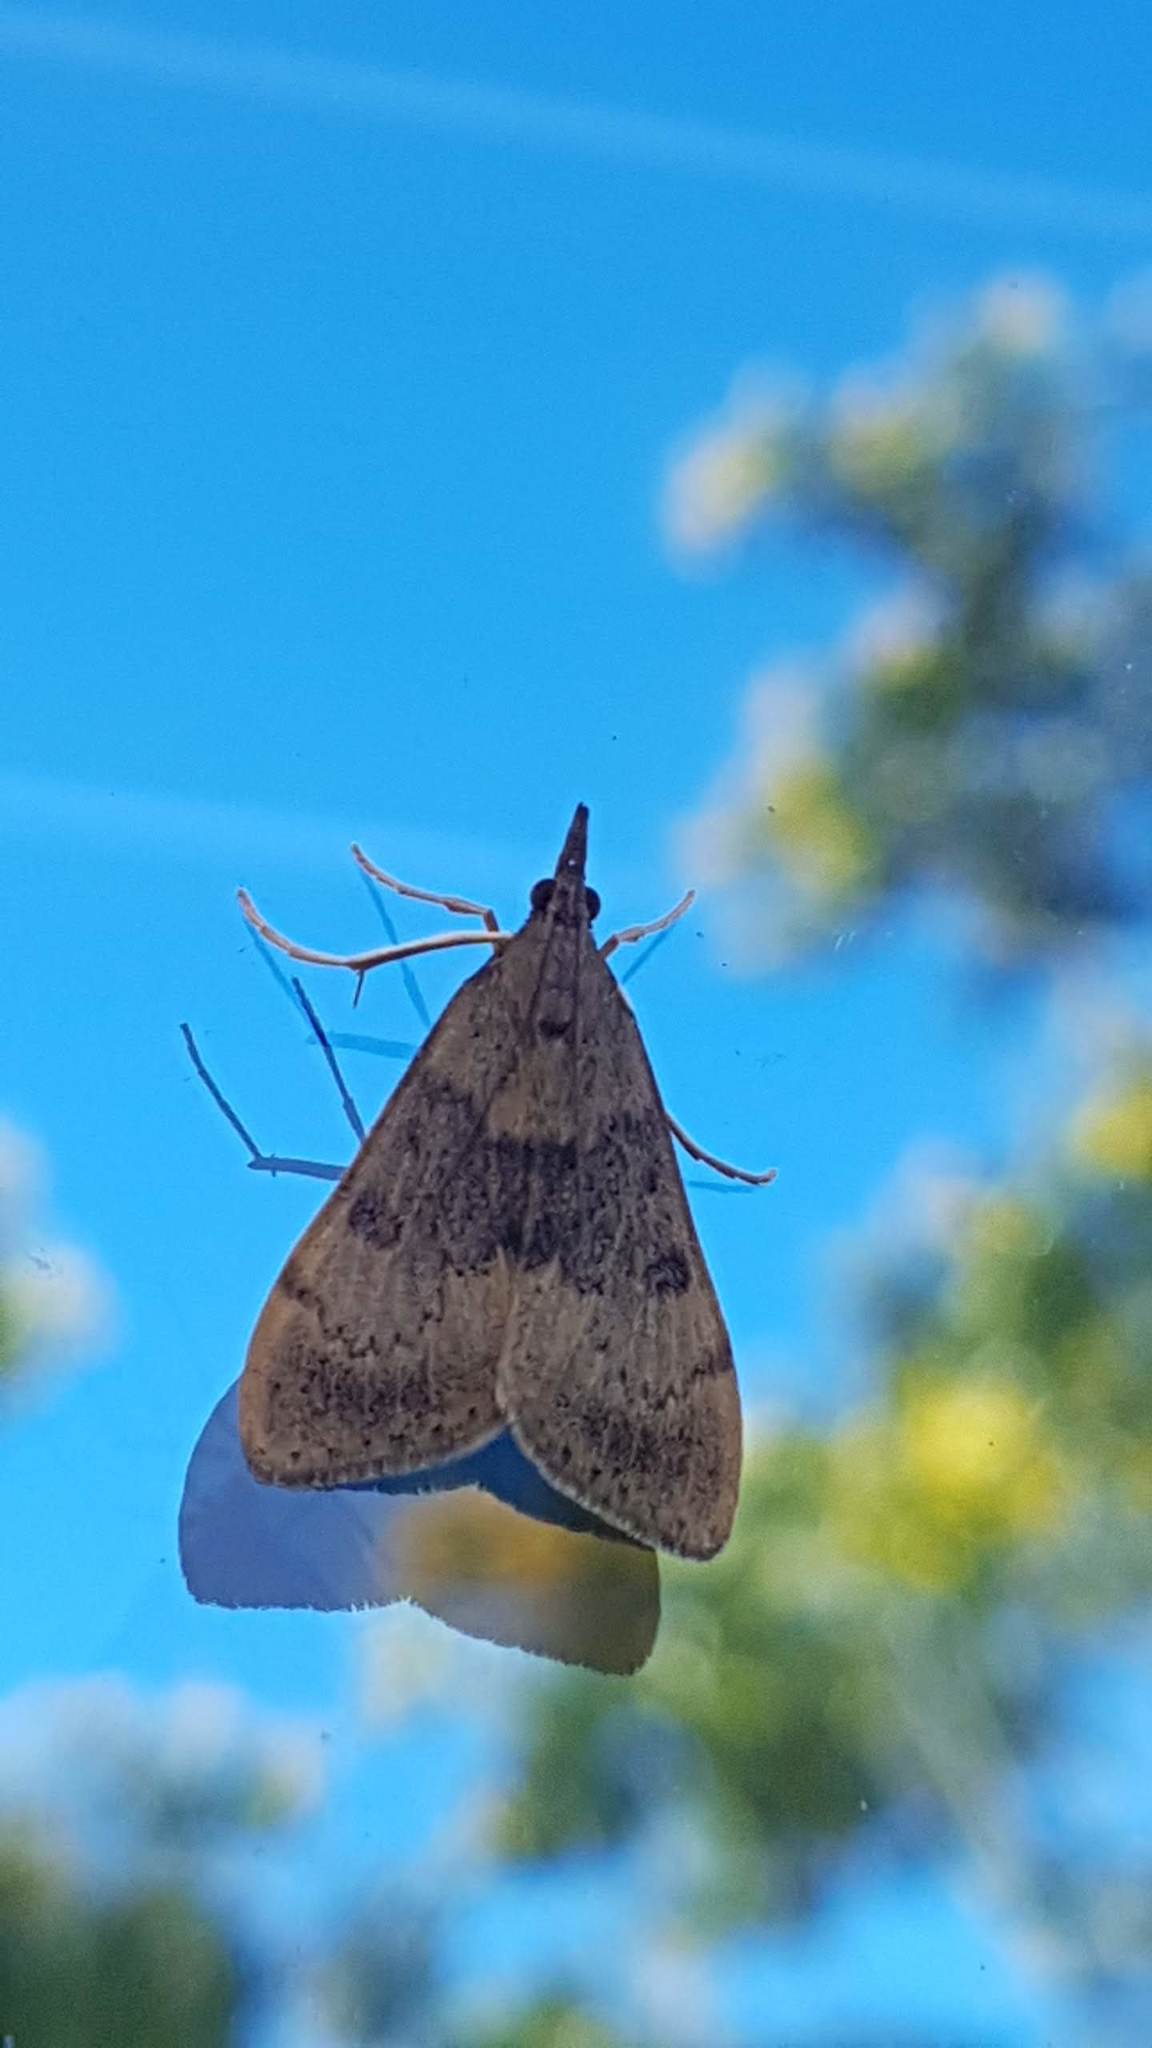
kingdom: Animalia
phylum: Arthropoda
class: Insecta
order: Lepidoptera
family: Crambidae
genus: Uresiphita
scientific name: Uresiphita
